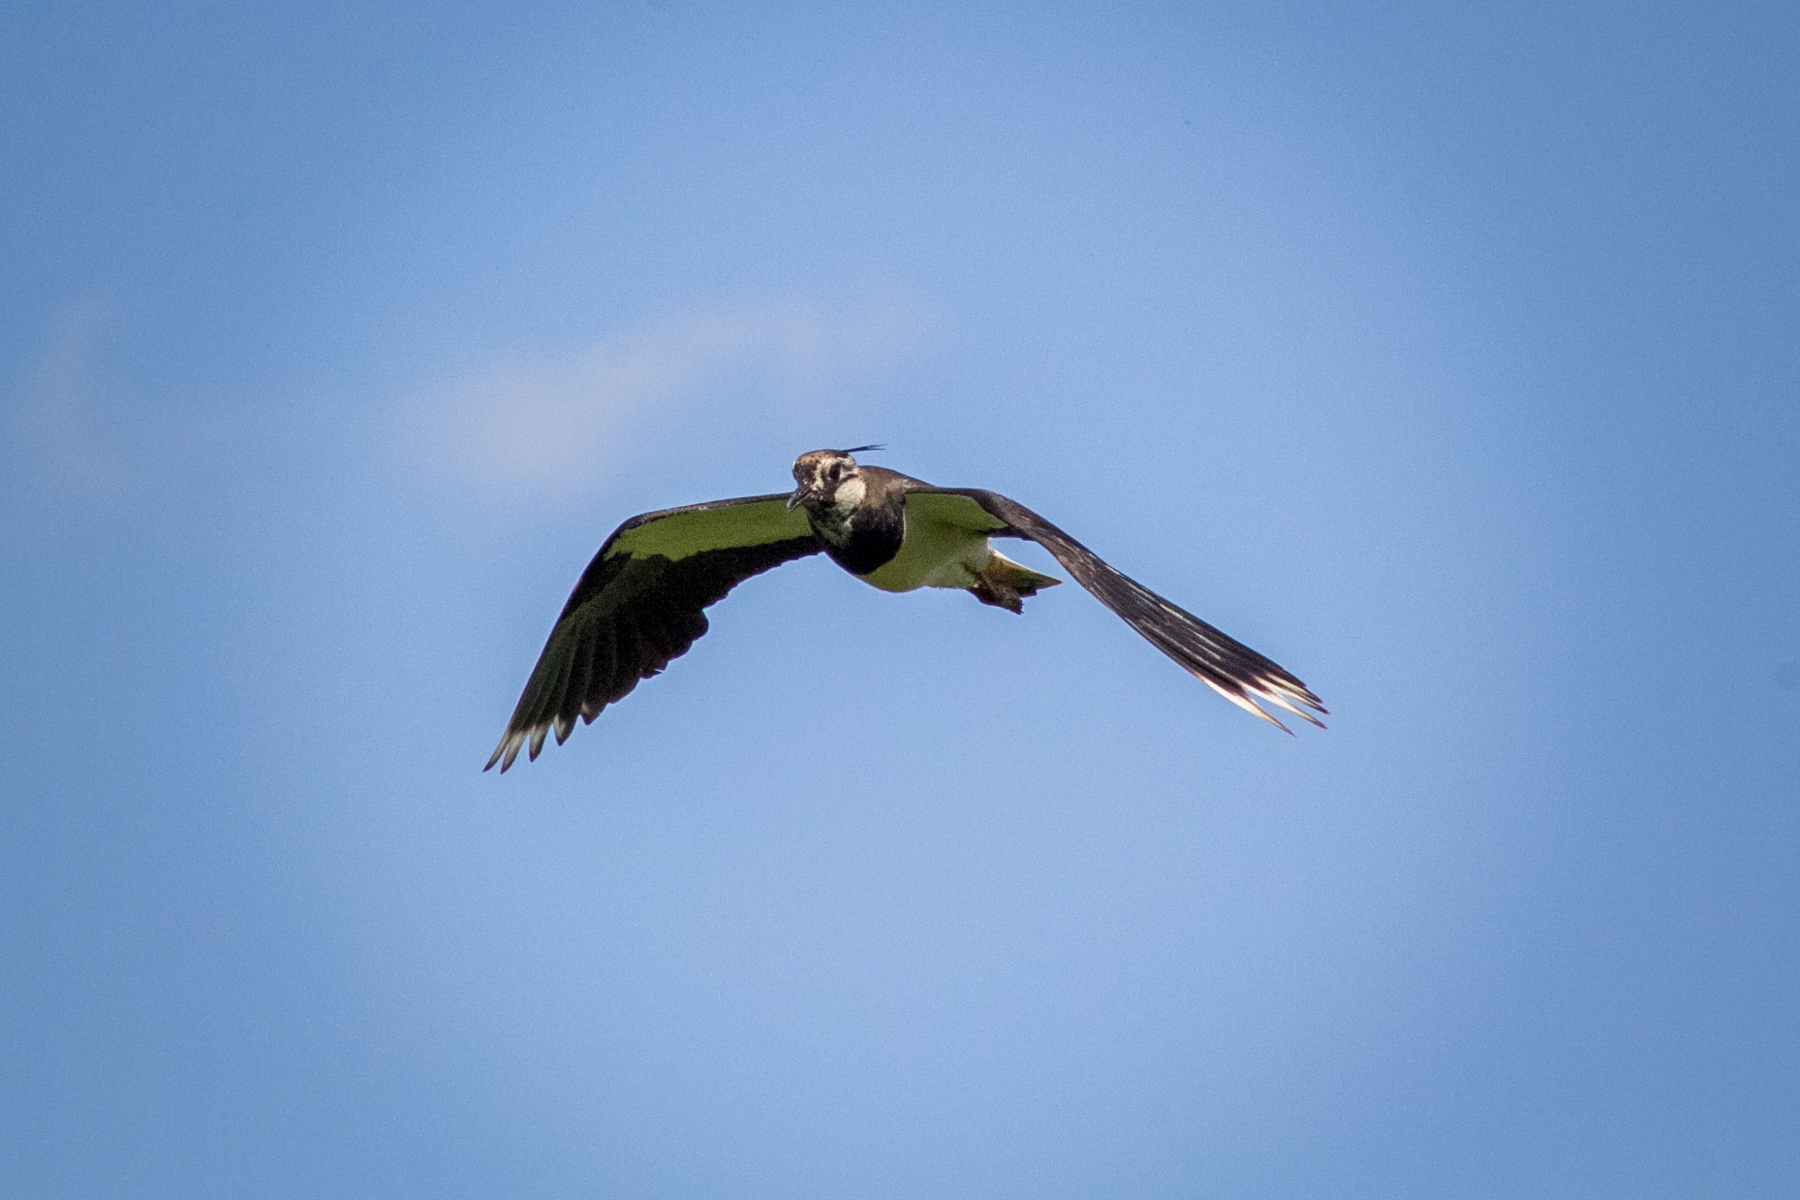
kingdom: Animalia
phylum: Chordata
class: Aves
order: Charadriiformes
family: Charadriidae
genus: Vanellus
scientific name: Vanellus vanellus
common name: Northern lapwing
